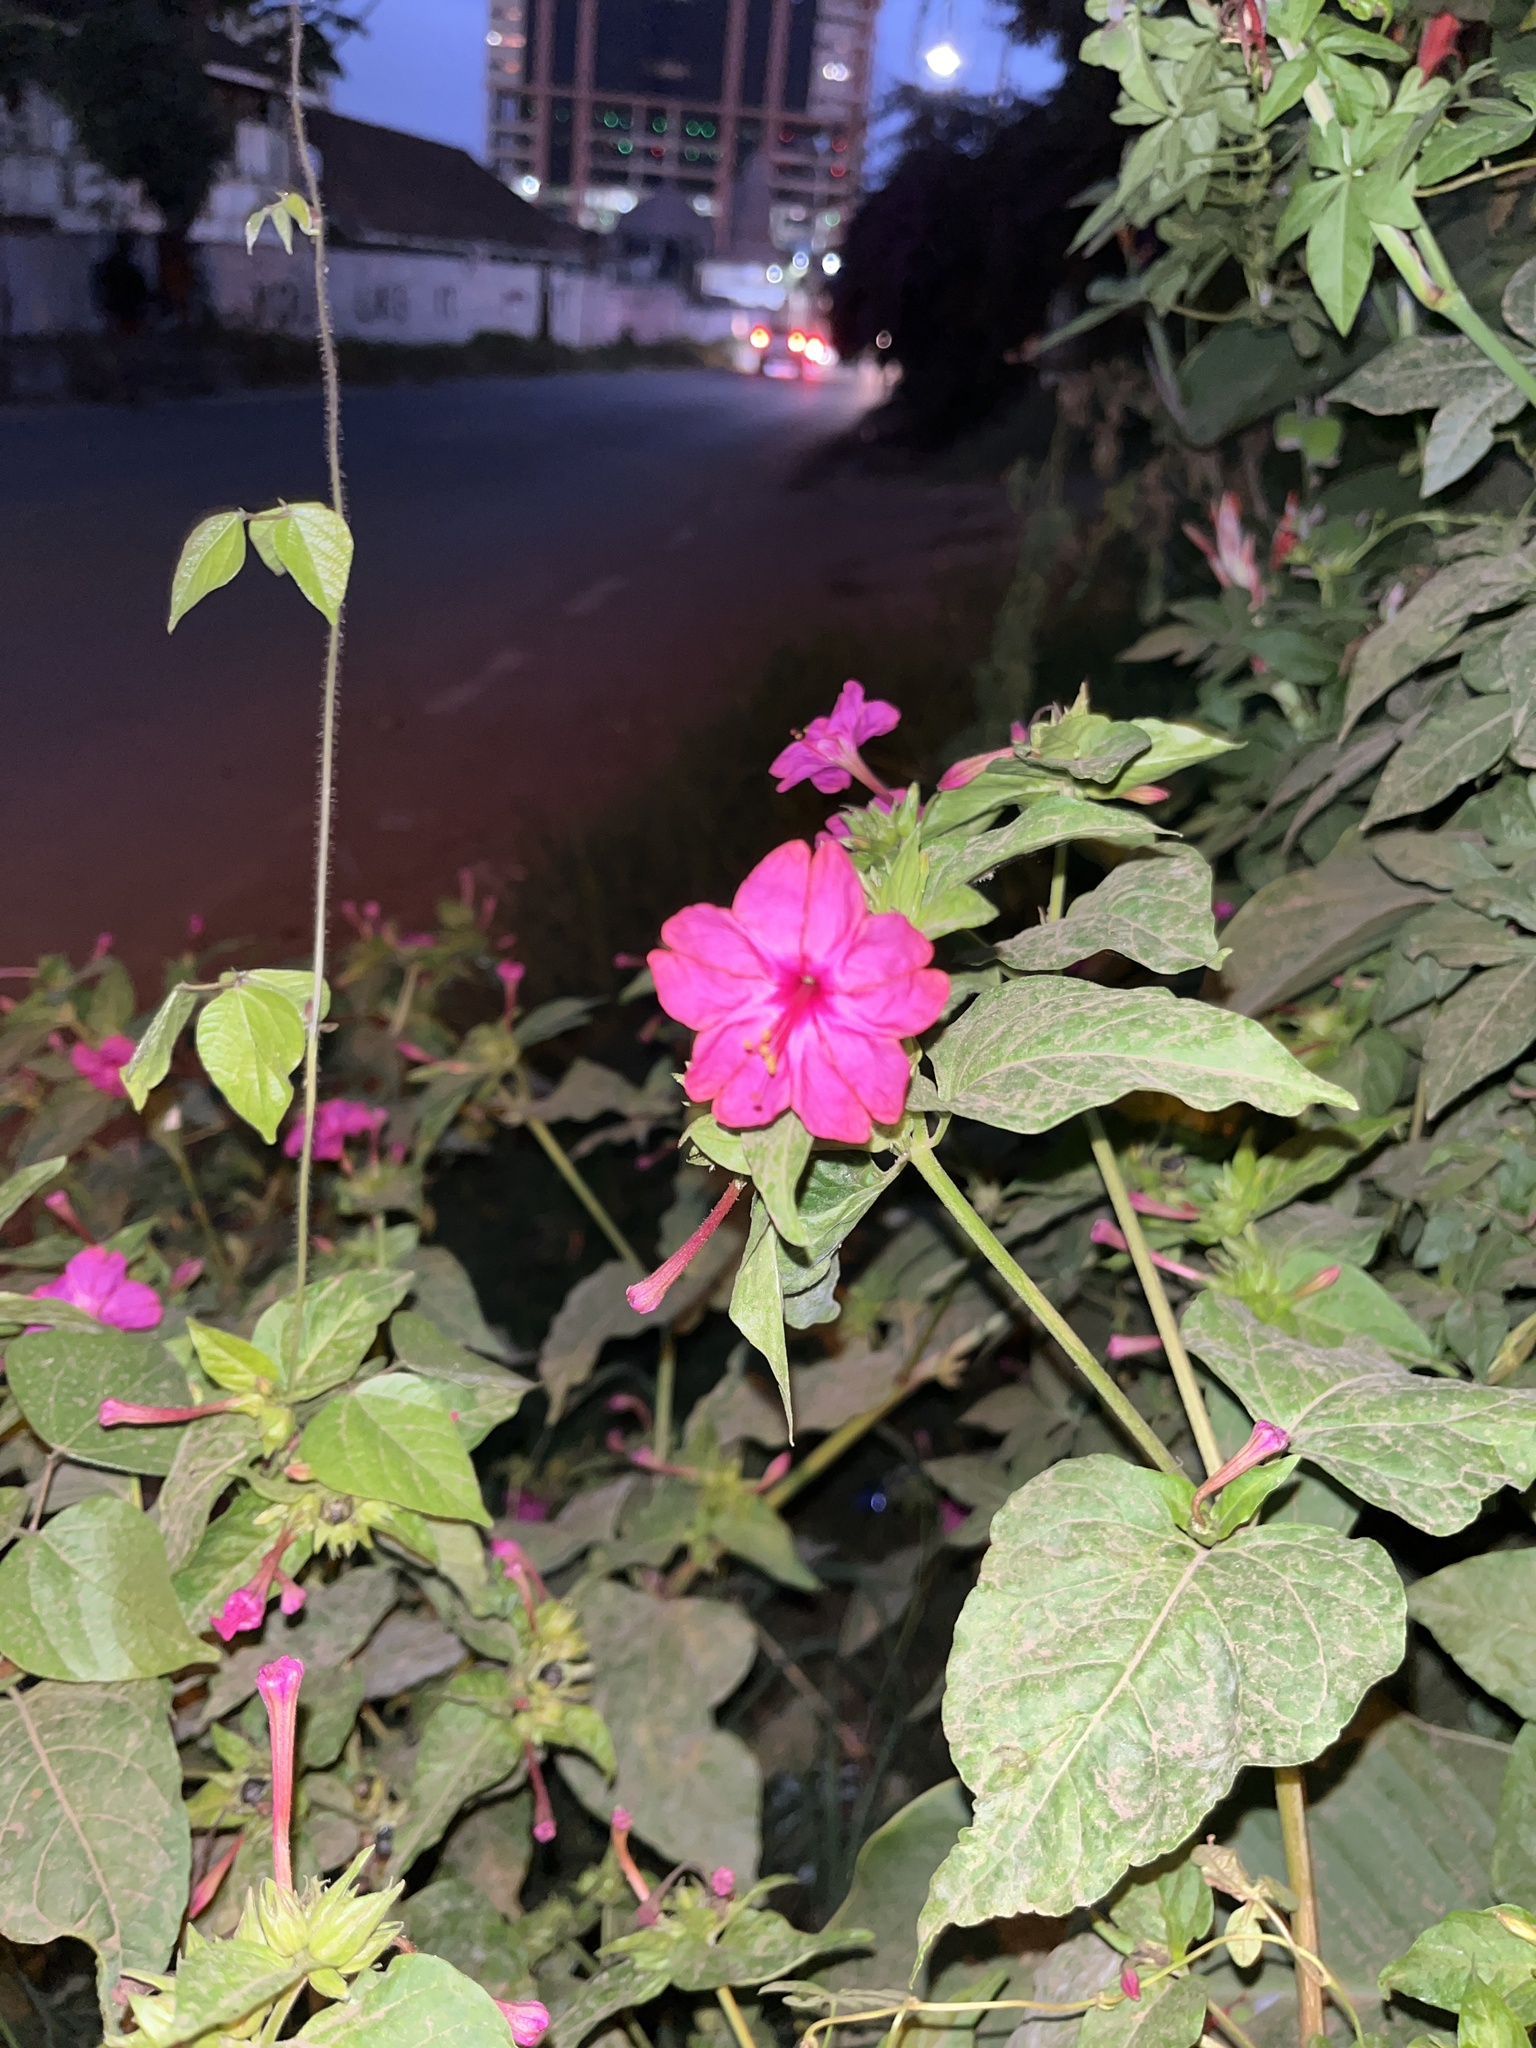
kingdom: Plantae
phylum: Tracheophyta
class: Magnoliopsida
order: Caryophyllales
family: Nyctaginaceae
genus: Mirabilis
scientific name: Mirabilis jalapa
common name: Marvel-of-peru
